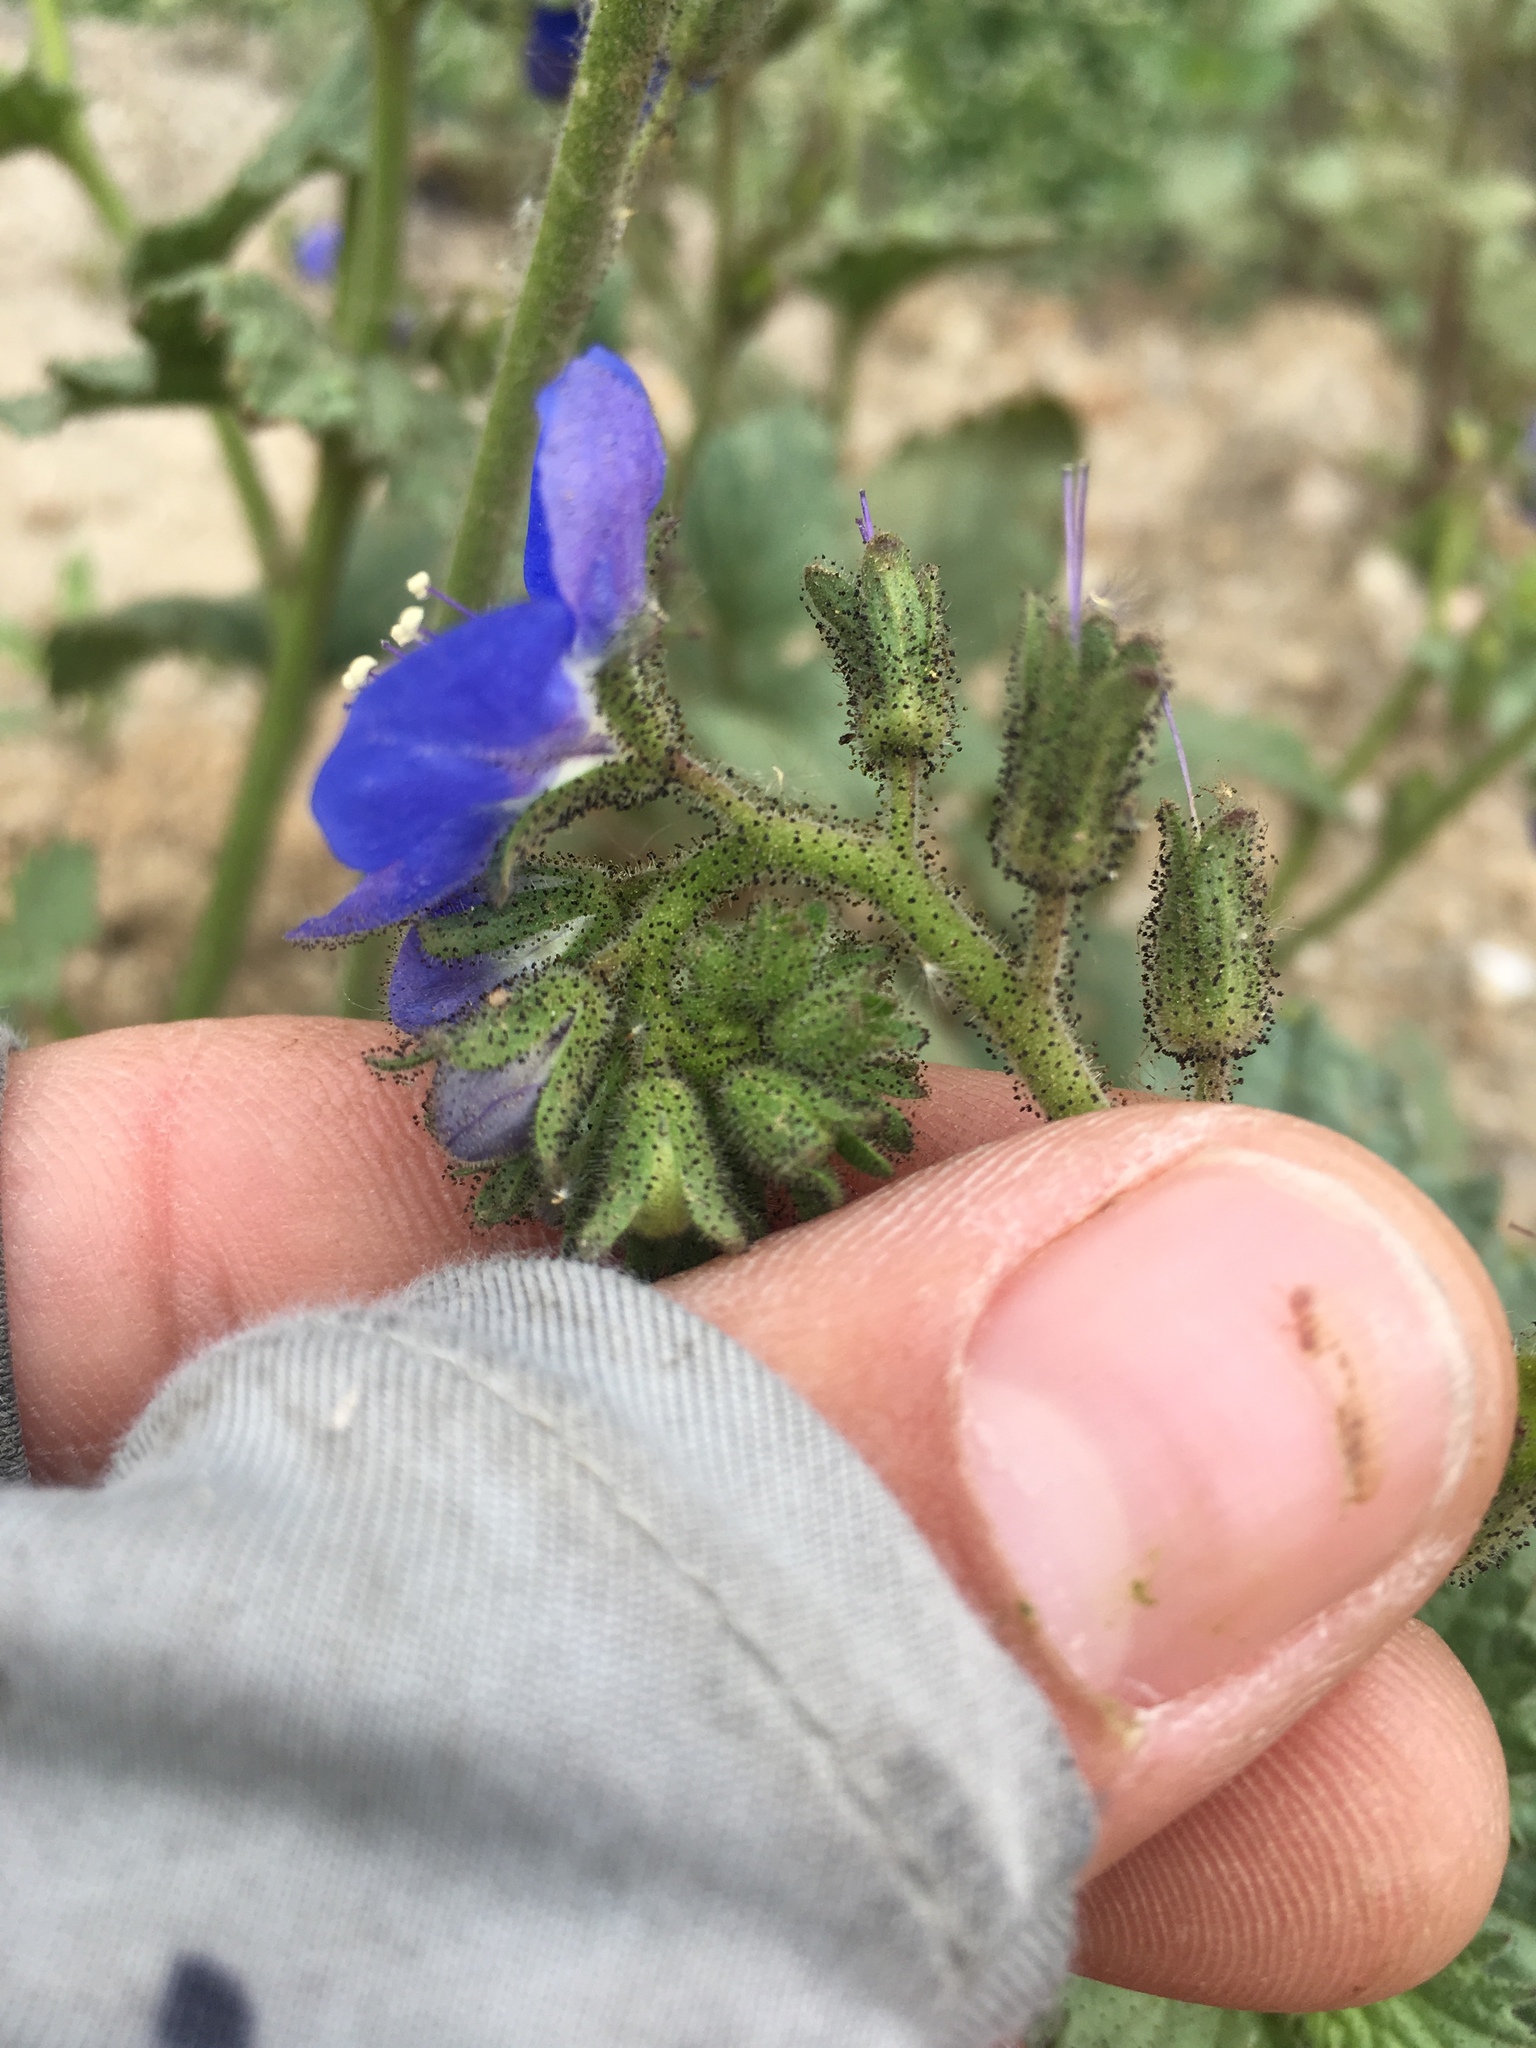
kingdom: Plantae
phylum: Tracheophyta
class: Magnoliopsida
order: Boraginales
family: Hydrophyllaceae
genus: Phacelia
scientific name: Phacelia viscida
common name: Sticky phacelia
